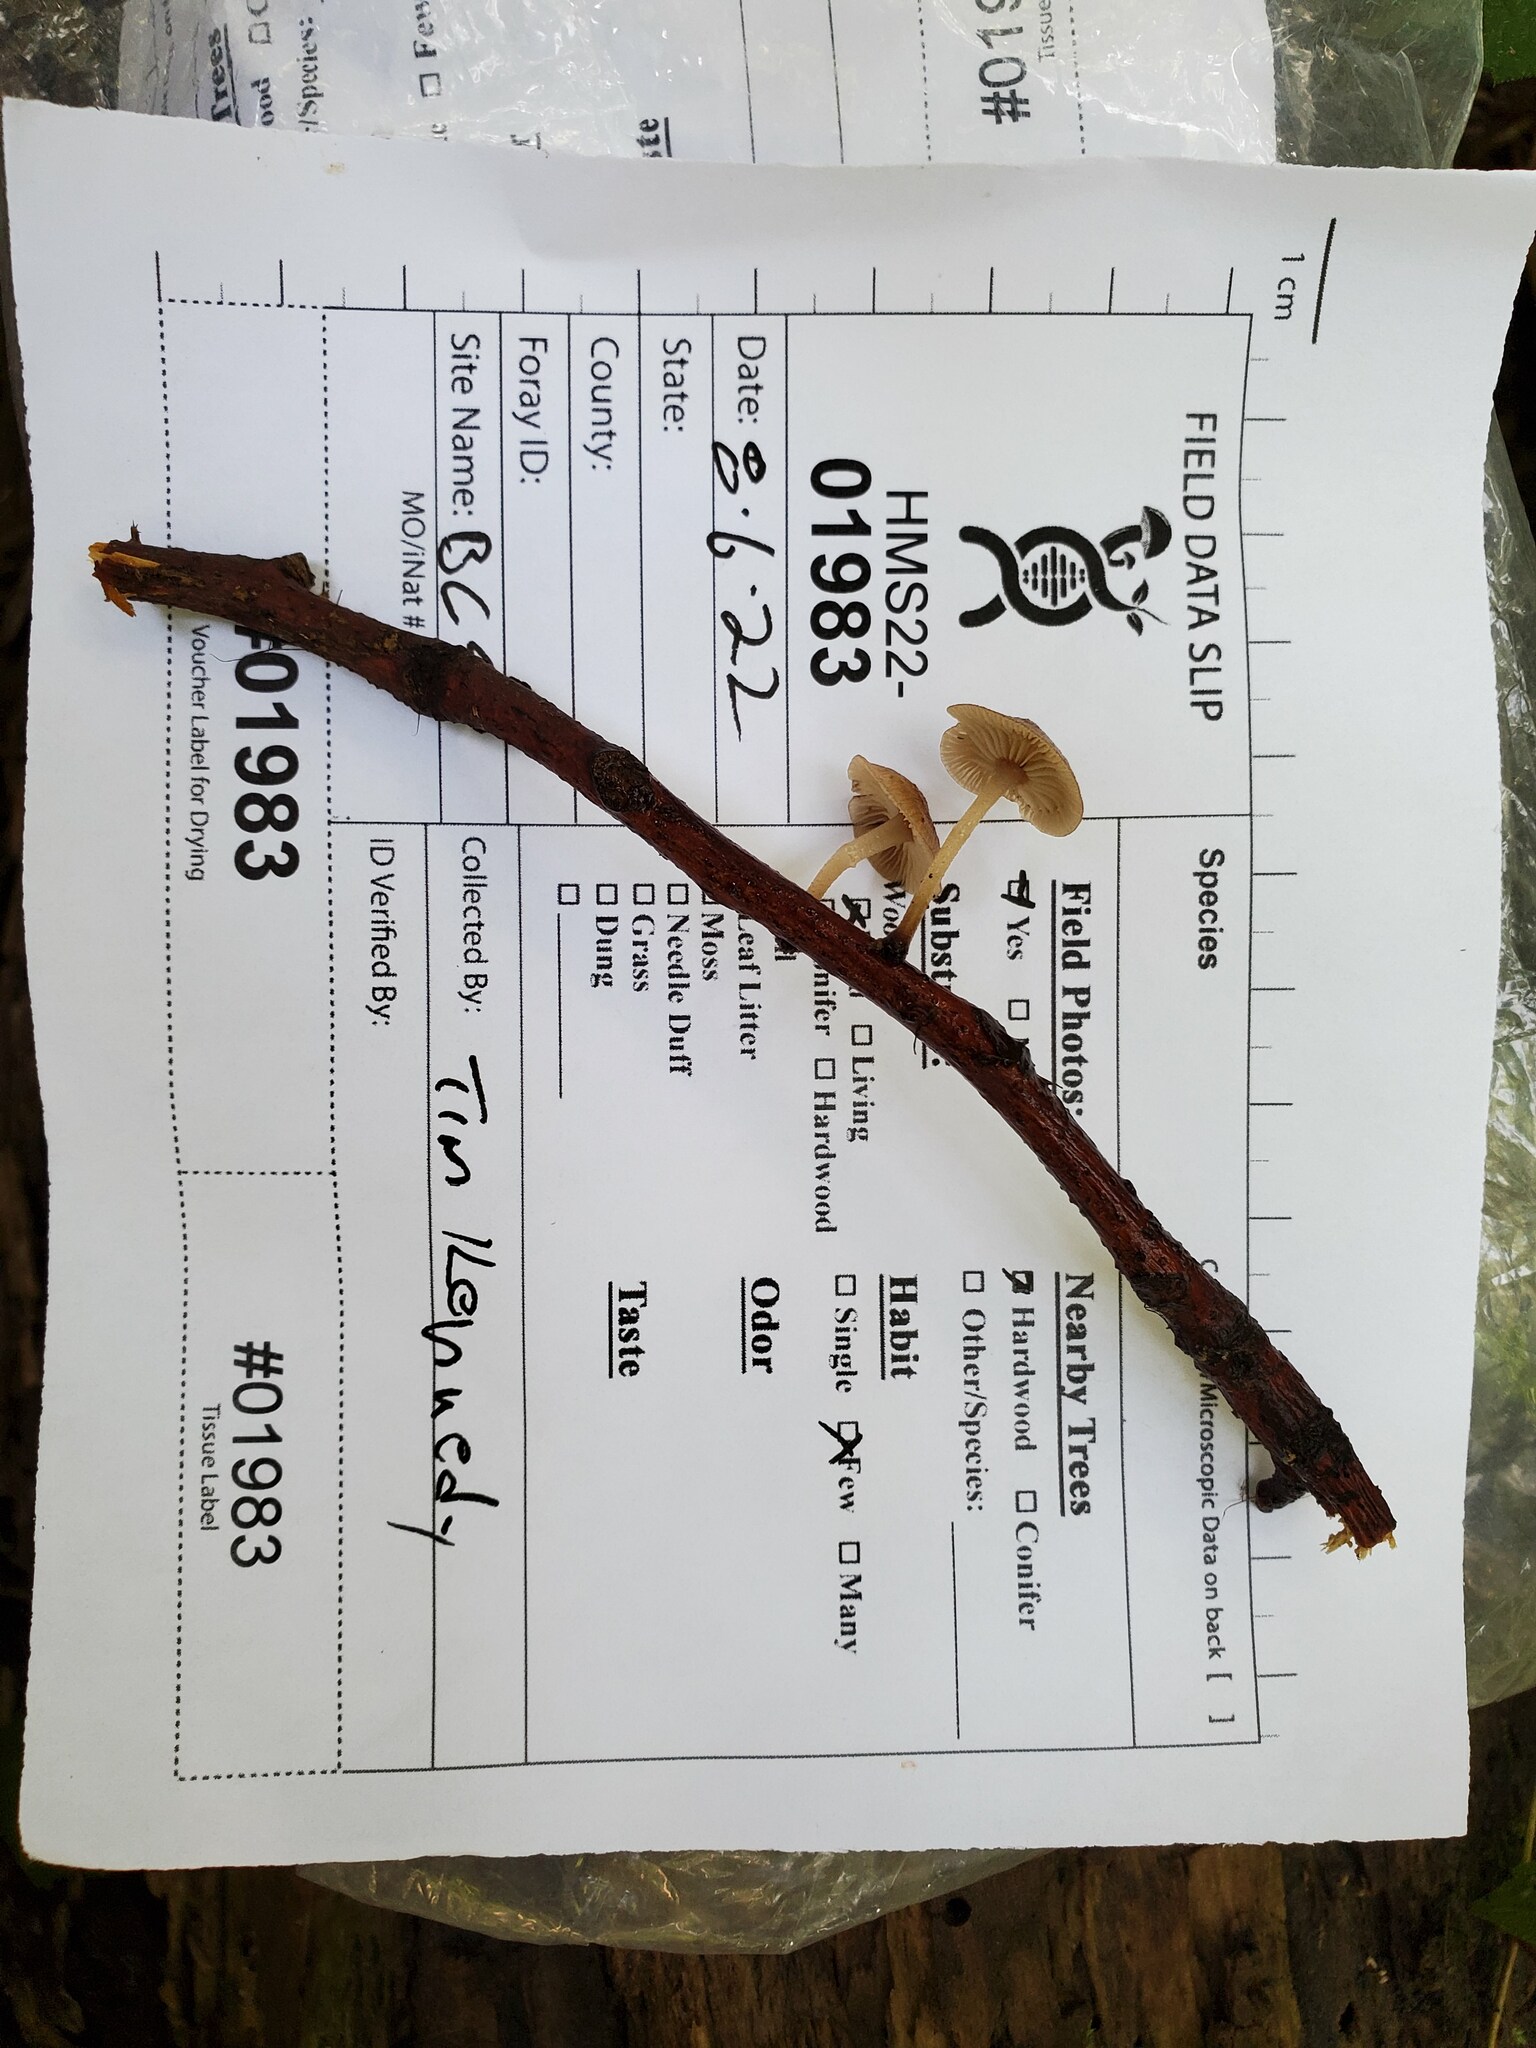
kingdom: Fungi
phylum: Basidiomycota
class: Agaricomycetes
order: Agaricales
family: Omphalotaceae
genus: Collybiopsis
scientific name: Collybiopsis dichroa
